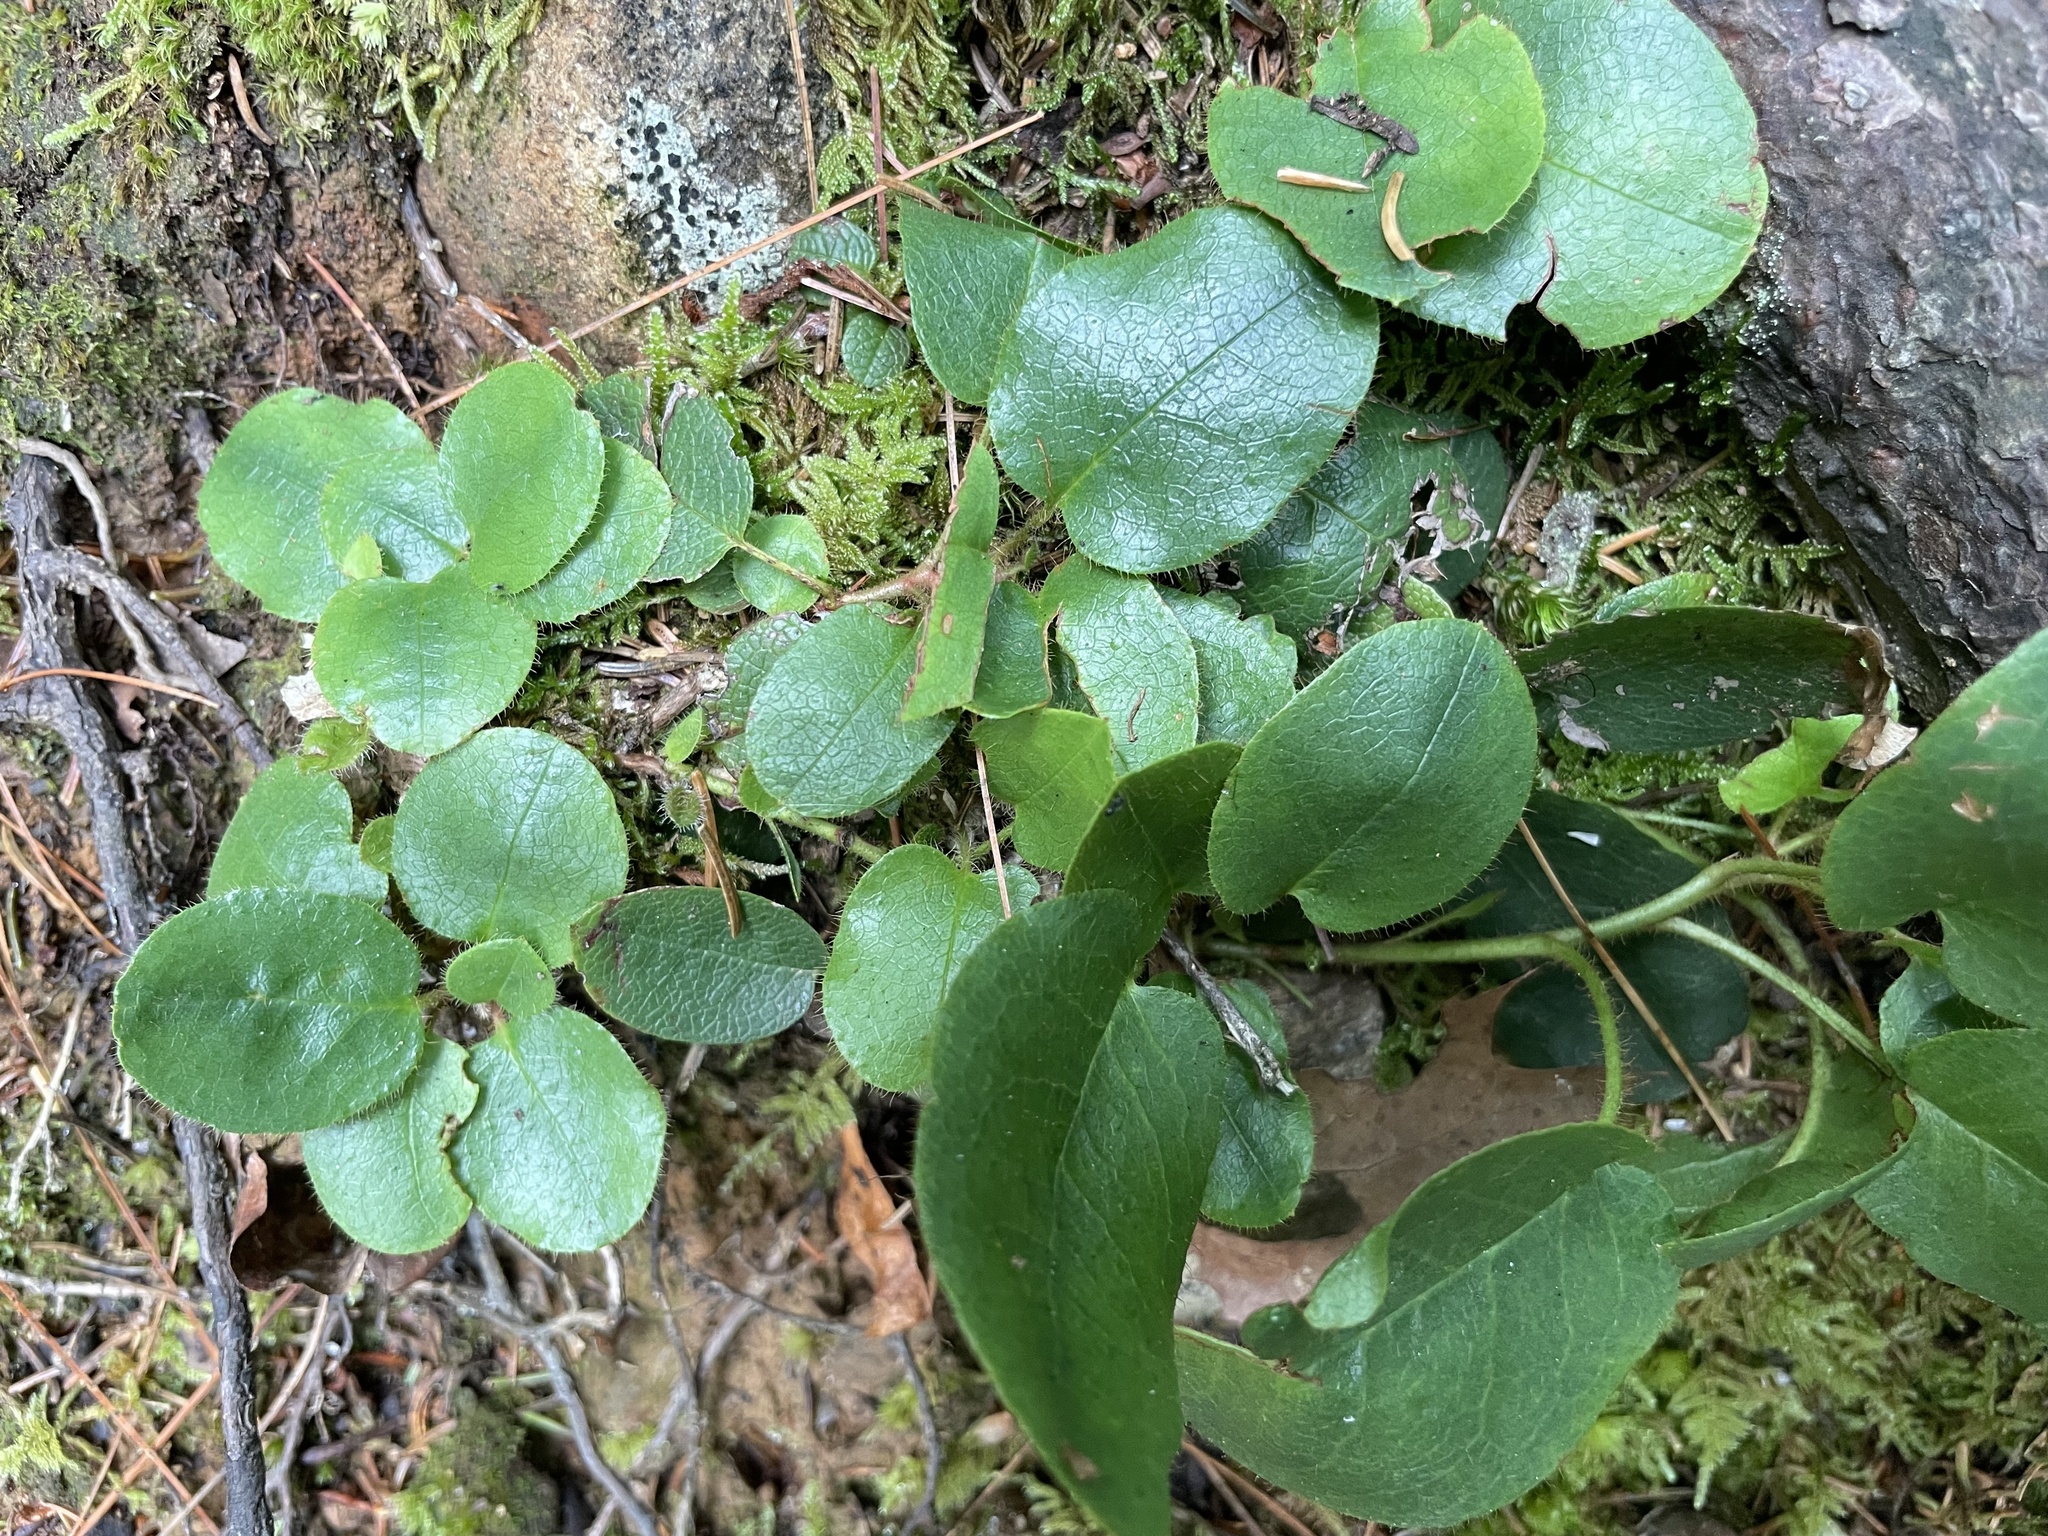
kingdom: Plantae
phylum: Tracheophyta
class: Magnoliopsida
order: Ericales
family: Ericaceae
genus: Epigaea
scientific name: Epigaea repens
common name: Gravelroot
